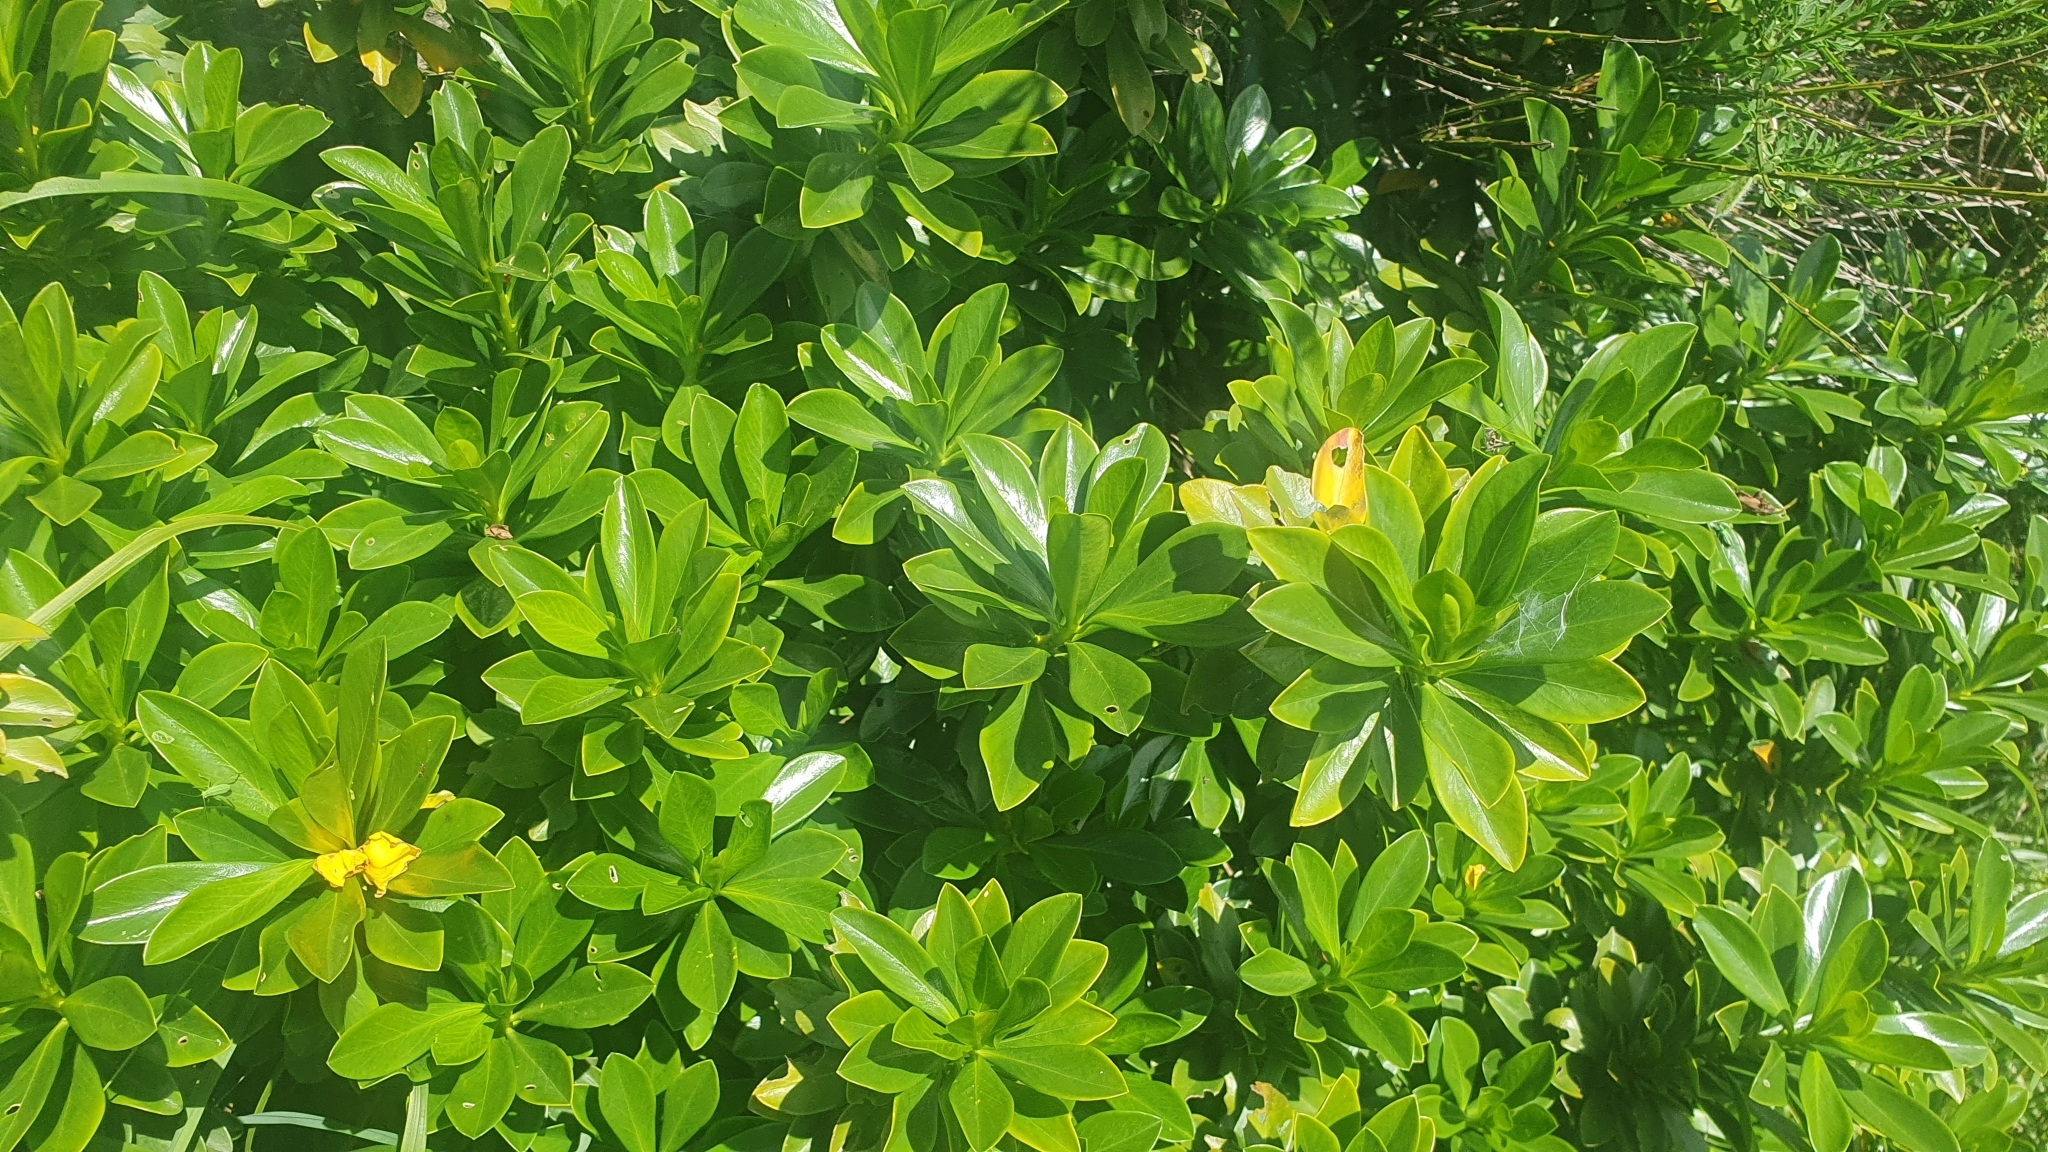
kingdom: Plantae
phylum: Tracheophyta
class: Magnoliopsida
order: Malvales
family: Thymelaeaceae
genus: Daphne
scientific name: Daphne laureola
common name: Spurge-laurel
